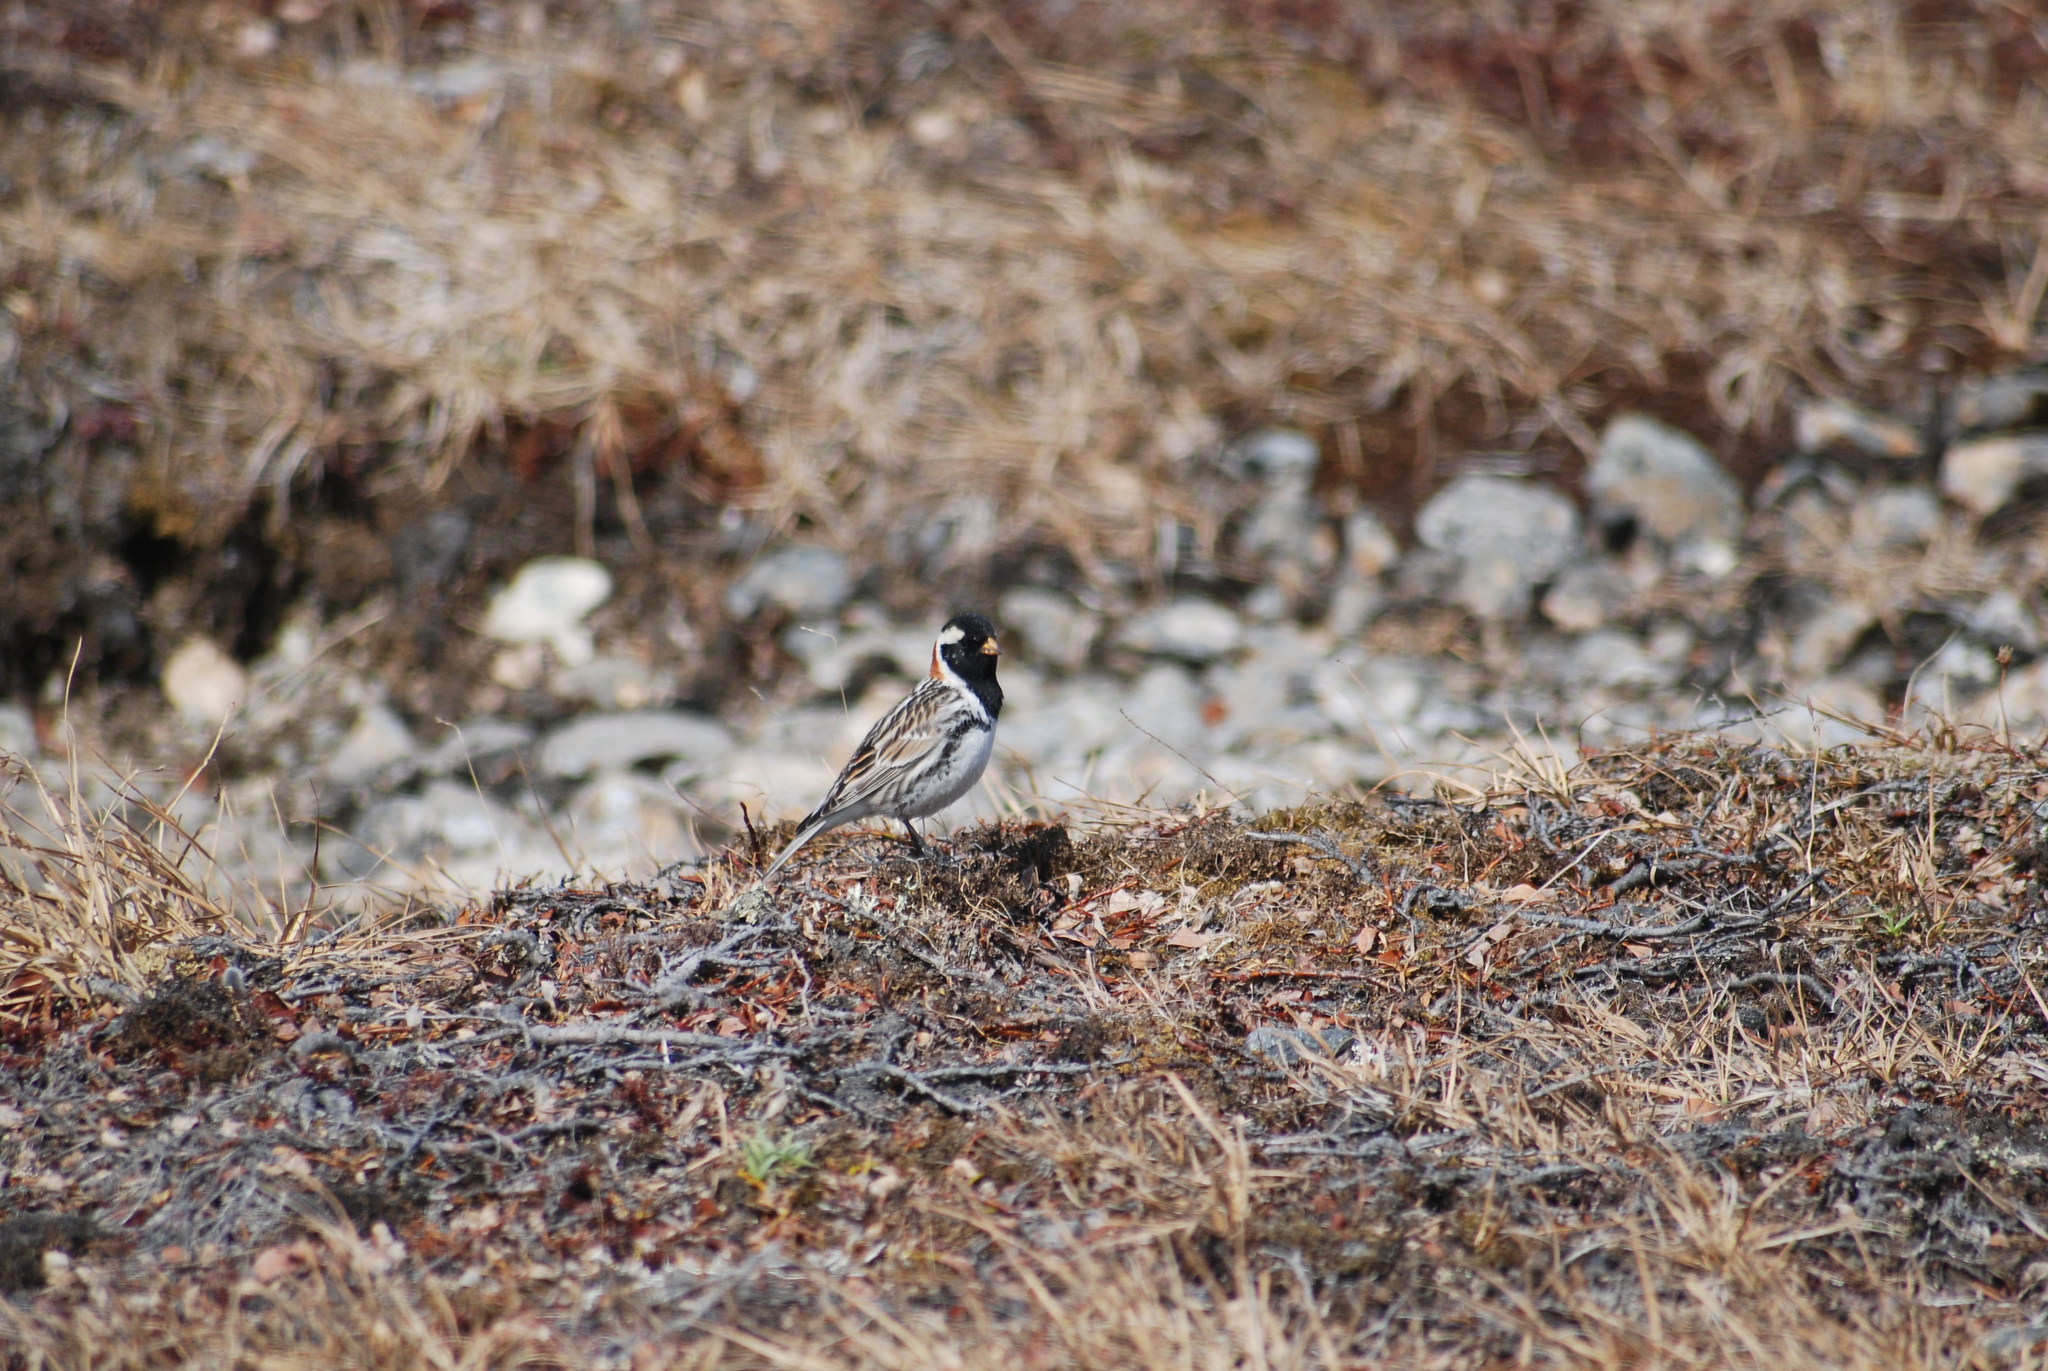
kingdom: Animalia
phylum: Chordata
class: Aves
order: Passeriformes
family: Calcariidae
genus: Calcarius
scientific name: Calcarius lapponicus
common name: Lapland longspur
